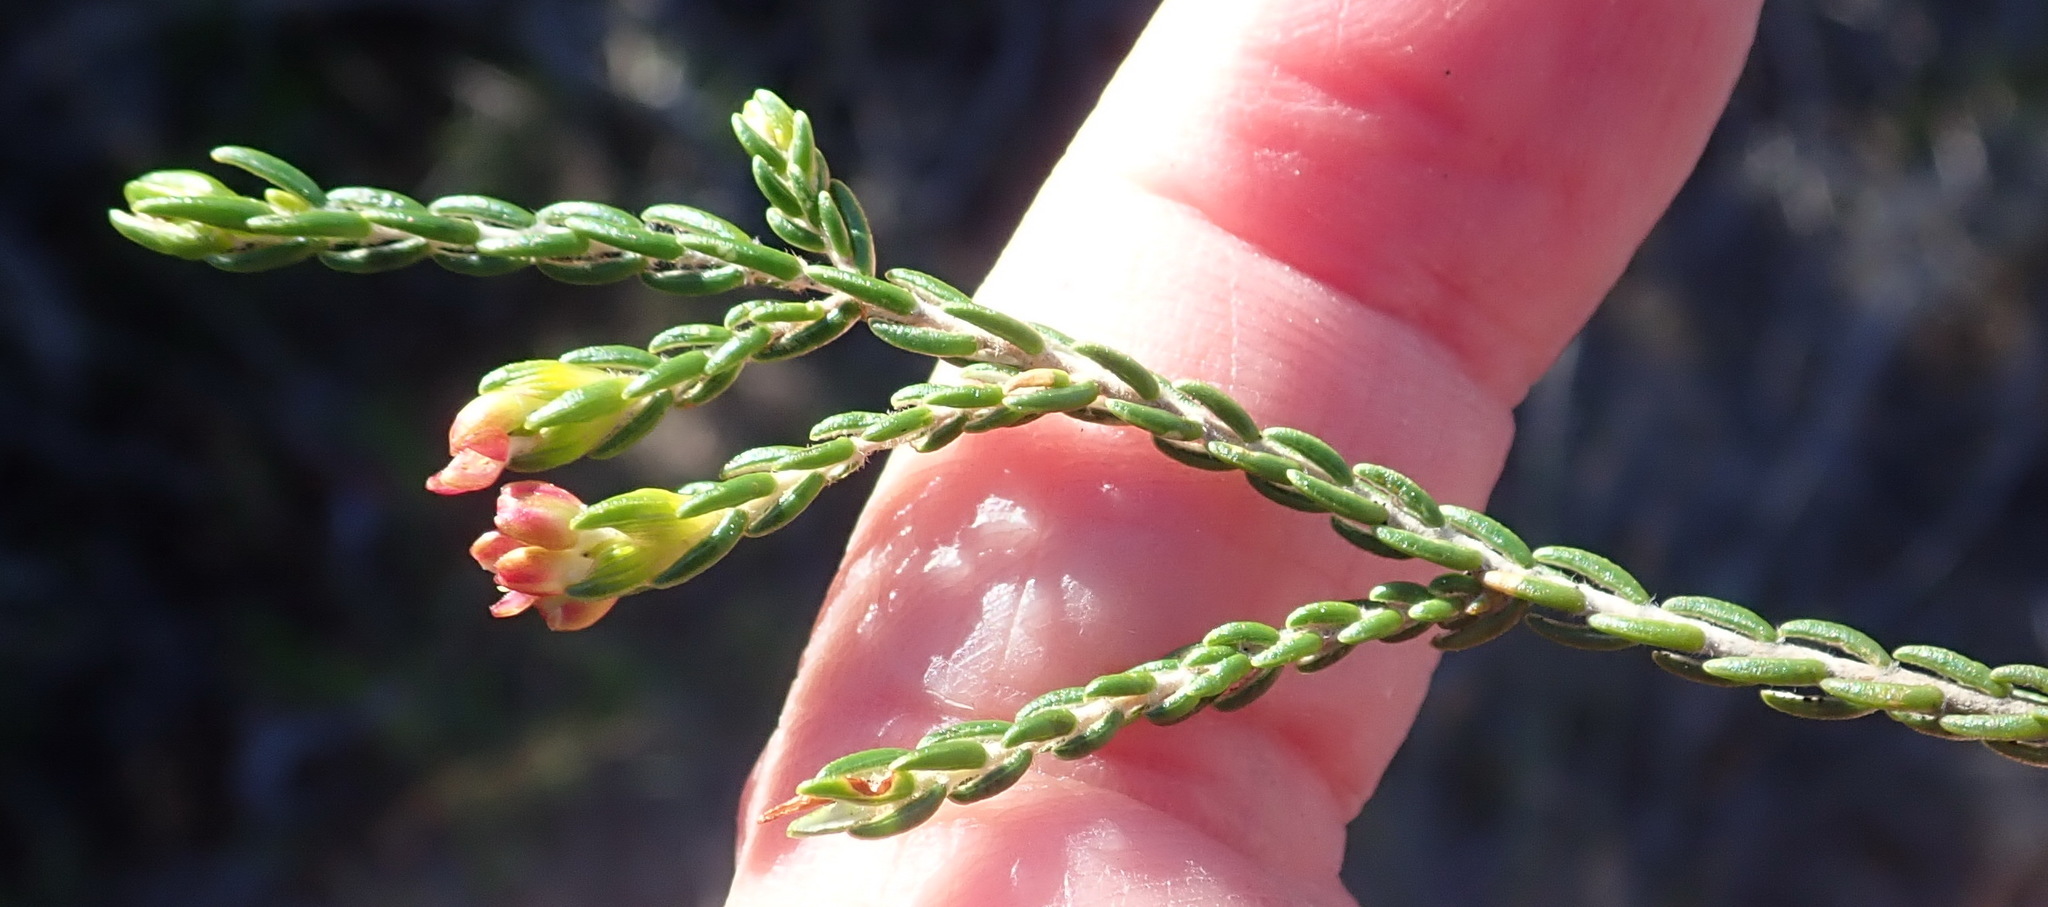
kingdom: Plantae
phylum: Tracheophyta
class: Magnoliopsida
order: Malvales
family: Thymelaeaceae
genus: Passerina
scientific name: Passerina rigida
